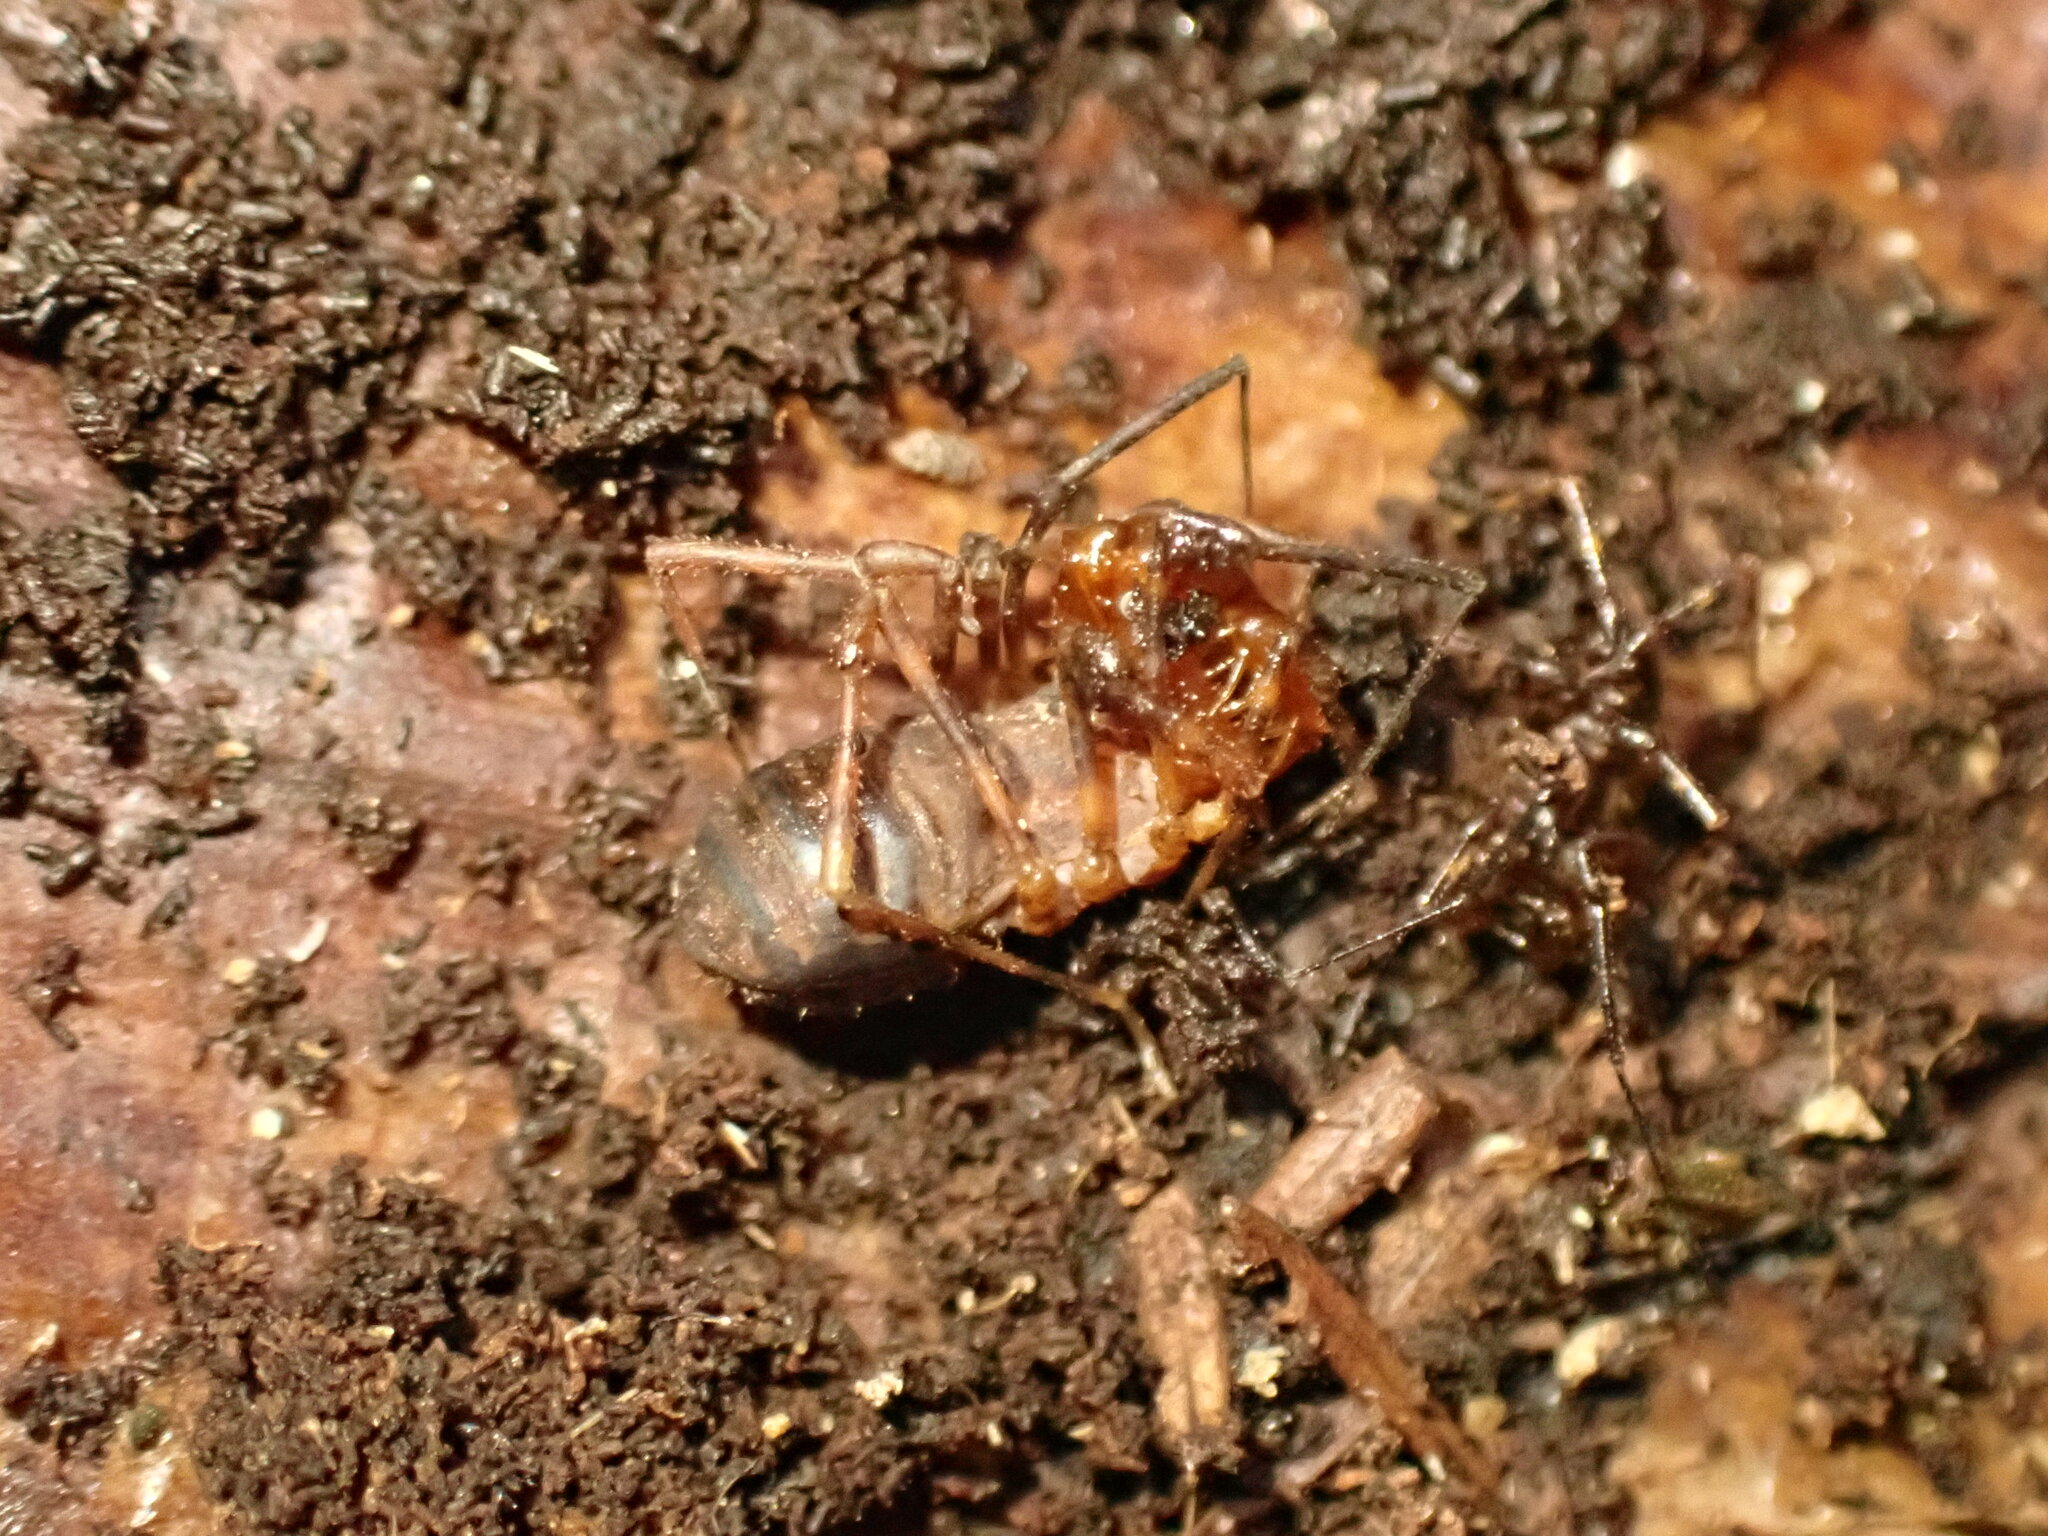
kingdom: Animalia
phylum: Arthropoda
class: Arachnida
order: Opiliones
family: Triaenonychidae
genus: Sorensenella
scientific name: Sorensenella prehensor
